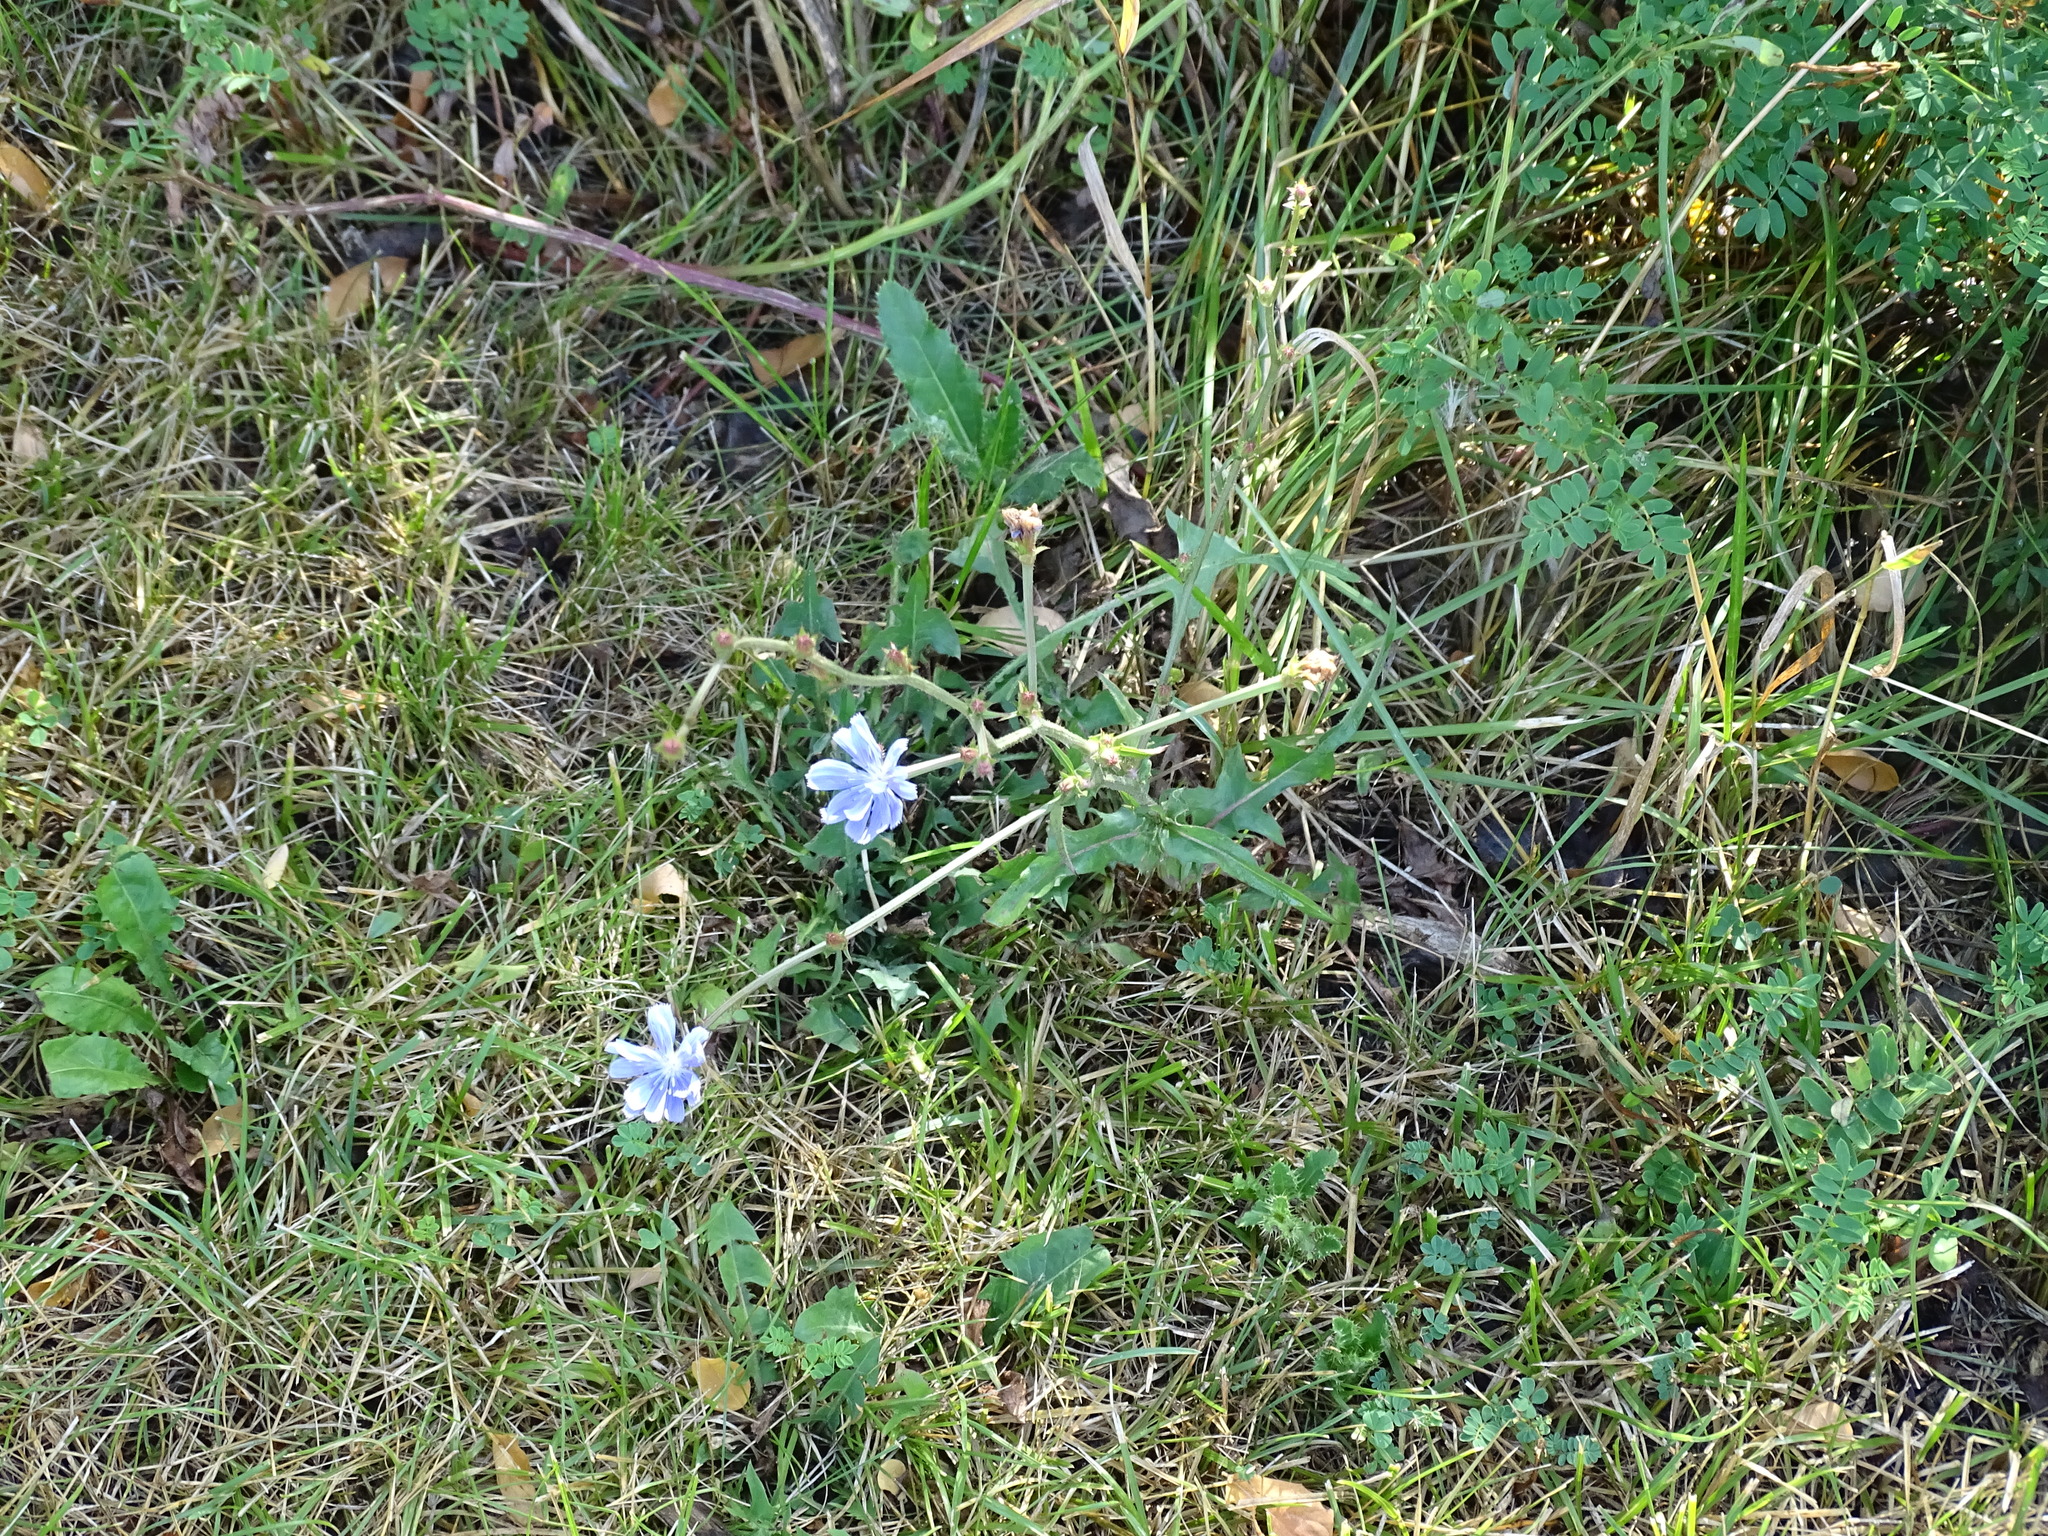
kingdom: Plantae
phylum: Tracheophyta
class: Magnoliopsida
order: Asterales
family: Asteraceae
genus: Cichorium
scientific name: Cichorium intybus
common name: Chicory
